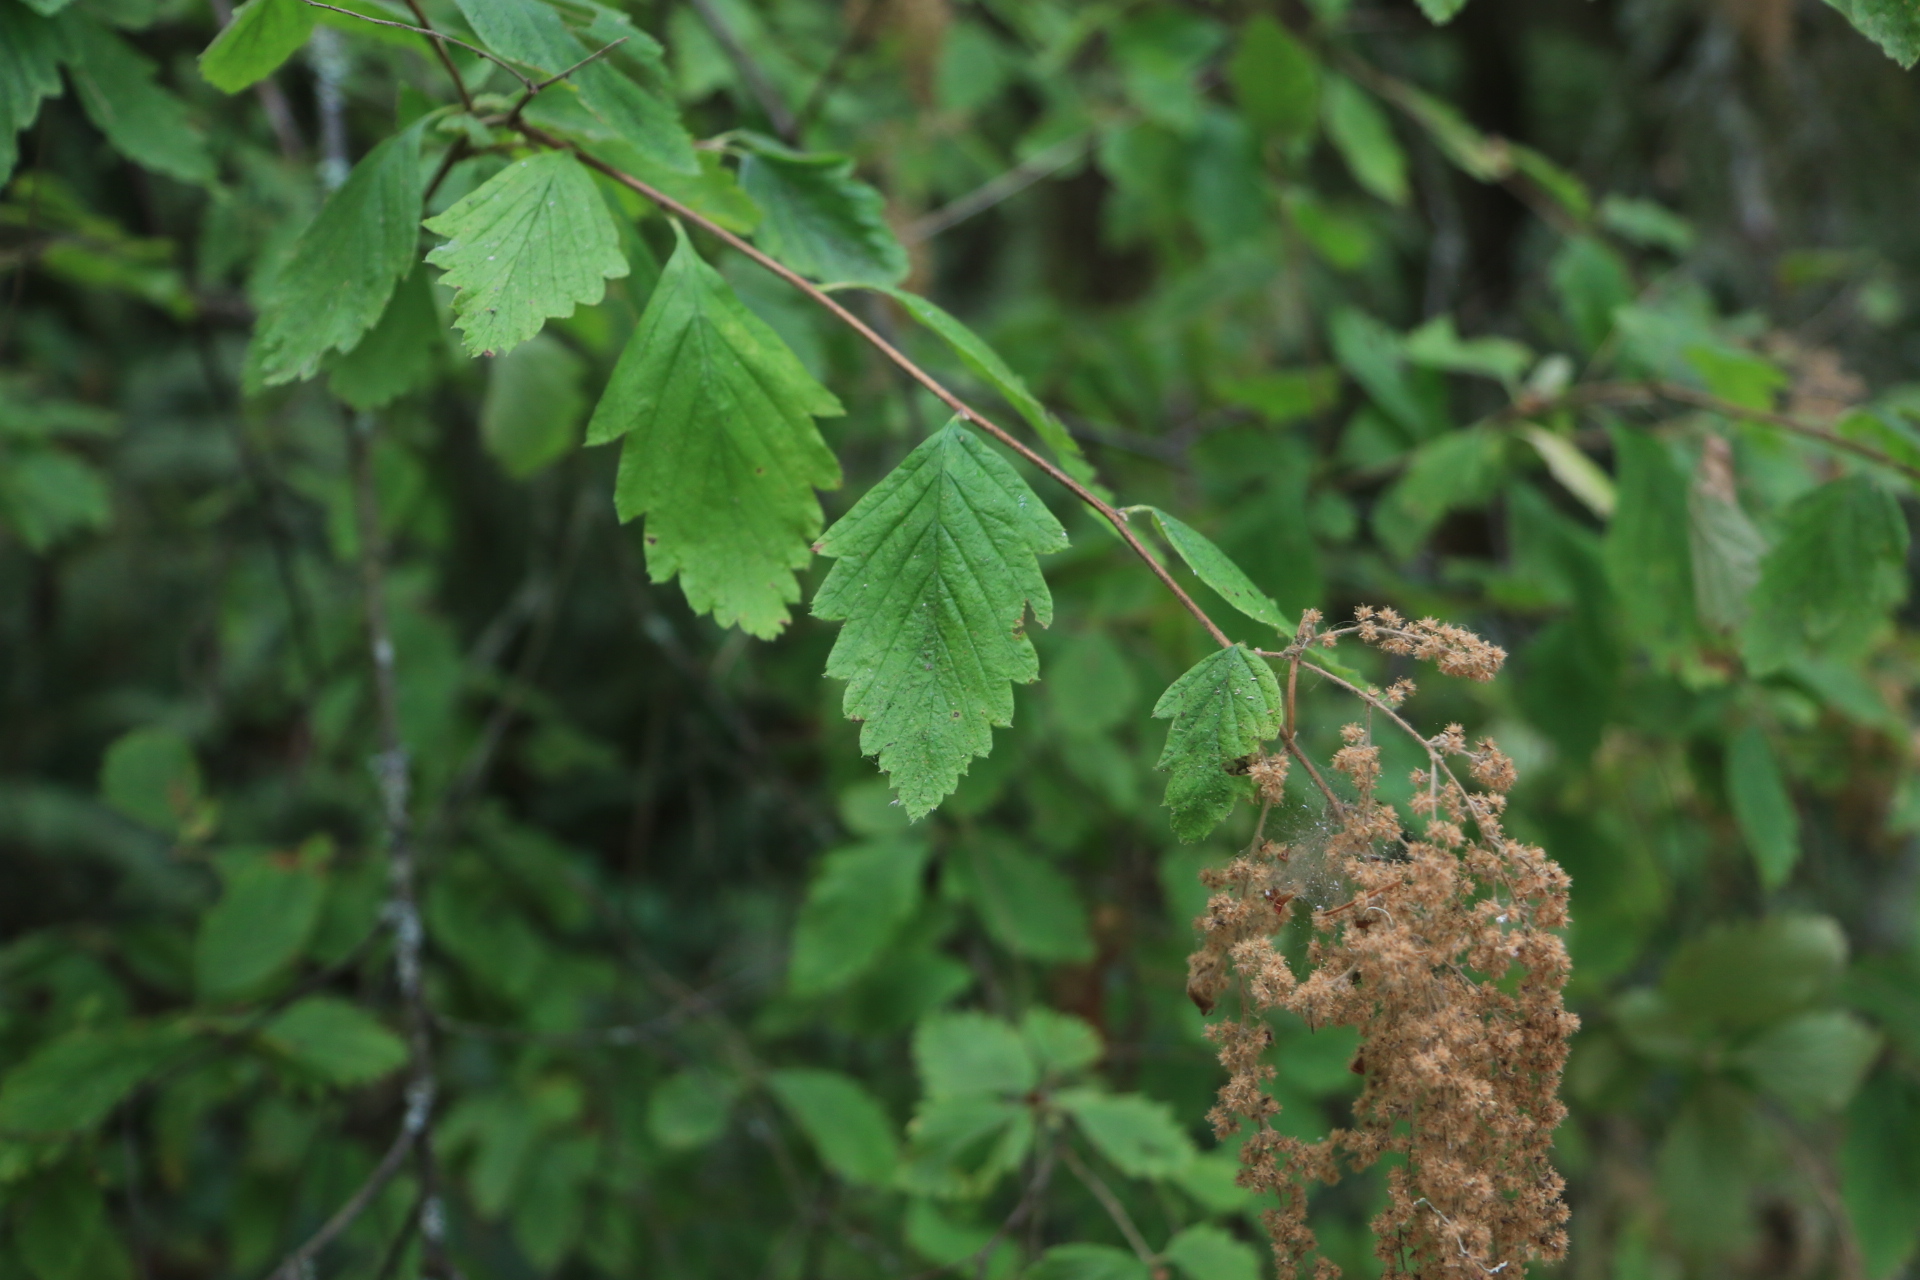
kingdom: Plantae
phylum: Tracheophyta
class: Magnoliopsida
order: Rosales
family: Rosaceae
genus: Holodiscus
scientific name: Holodiscus discolor
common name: Oceanspray
